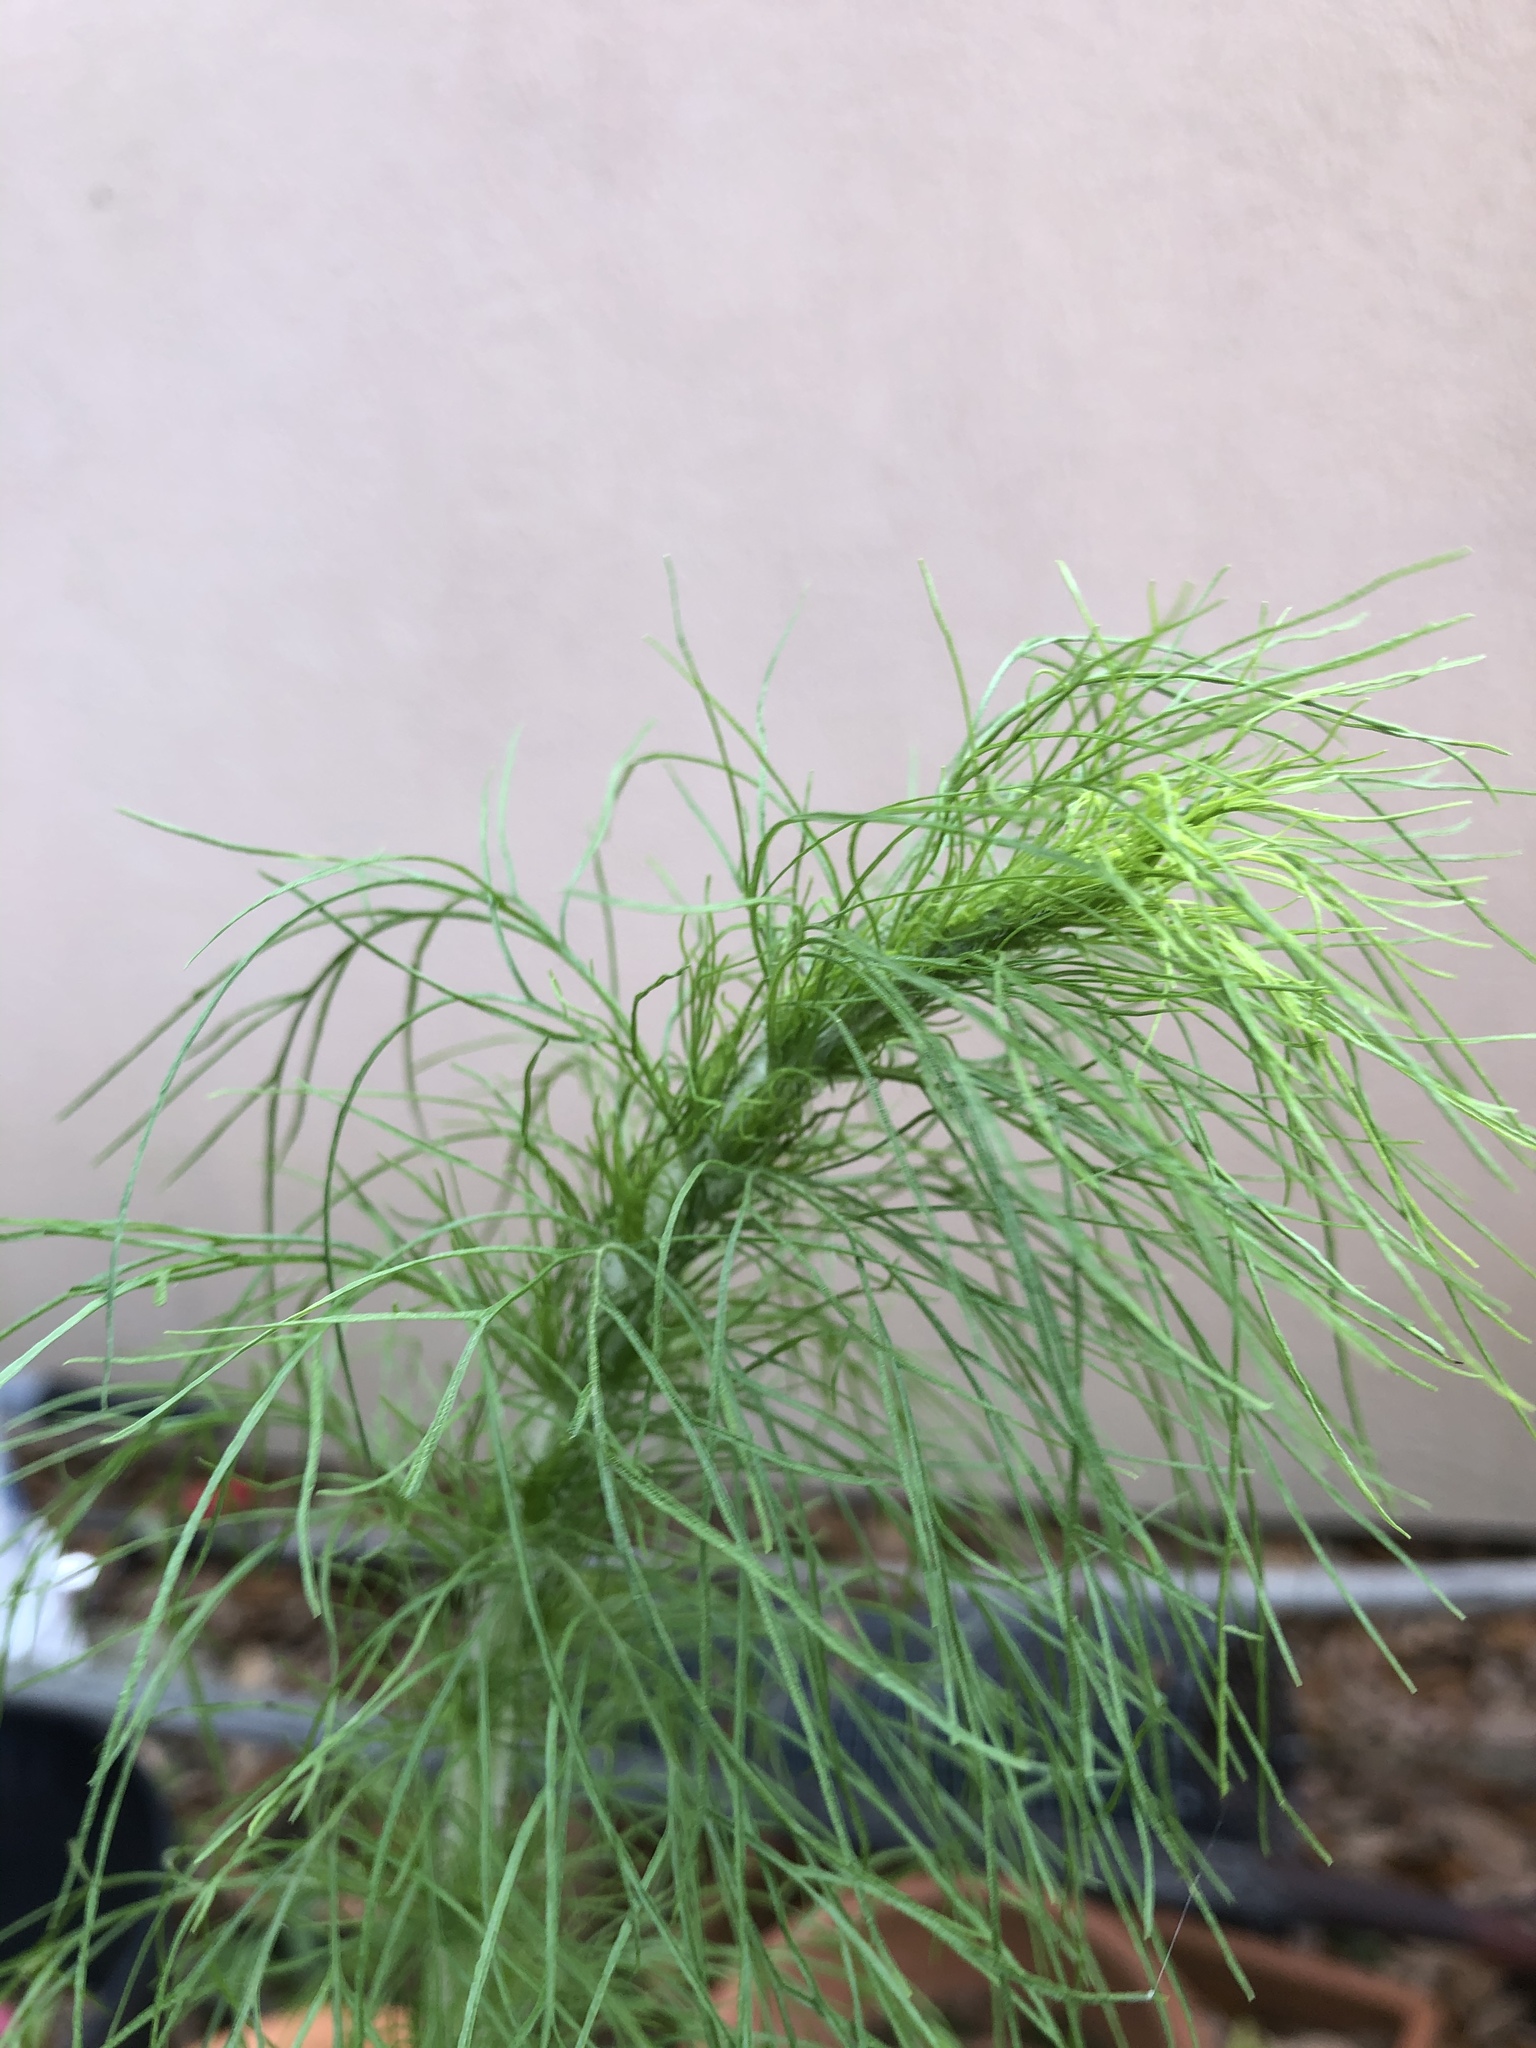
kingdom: Plantae
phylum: Tracheophyta
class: Magnoliopsida
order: Asterales
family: Asteraceae
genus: Eupatorium
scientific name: Eupatorium capillifolium
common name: Dog-fennel
